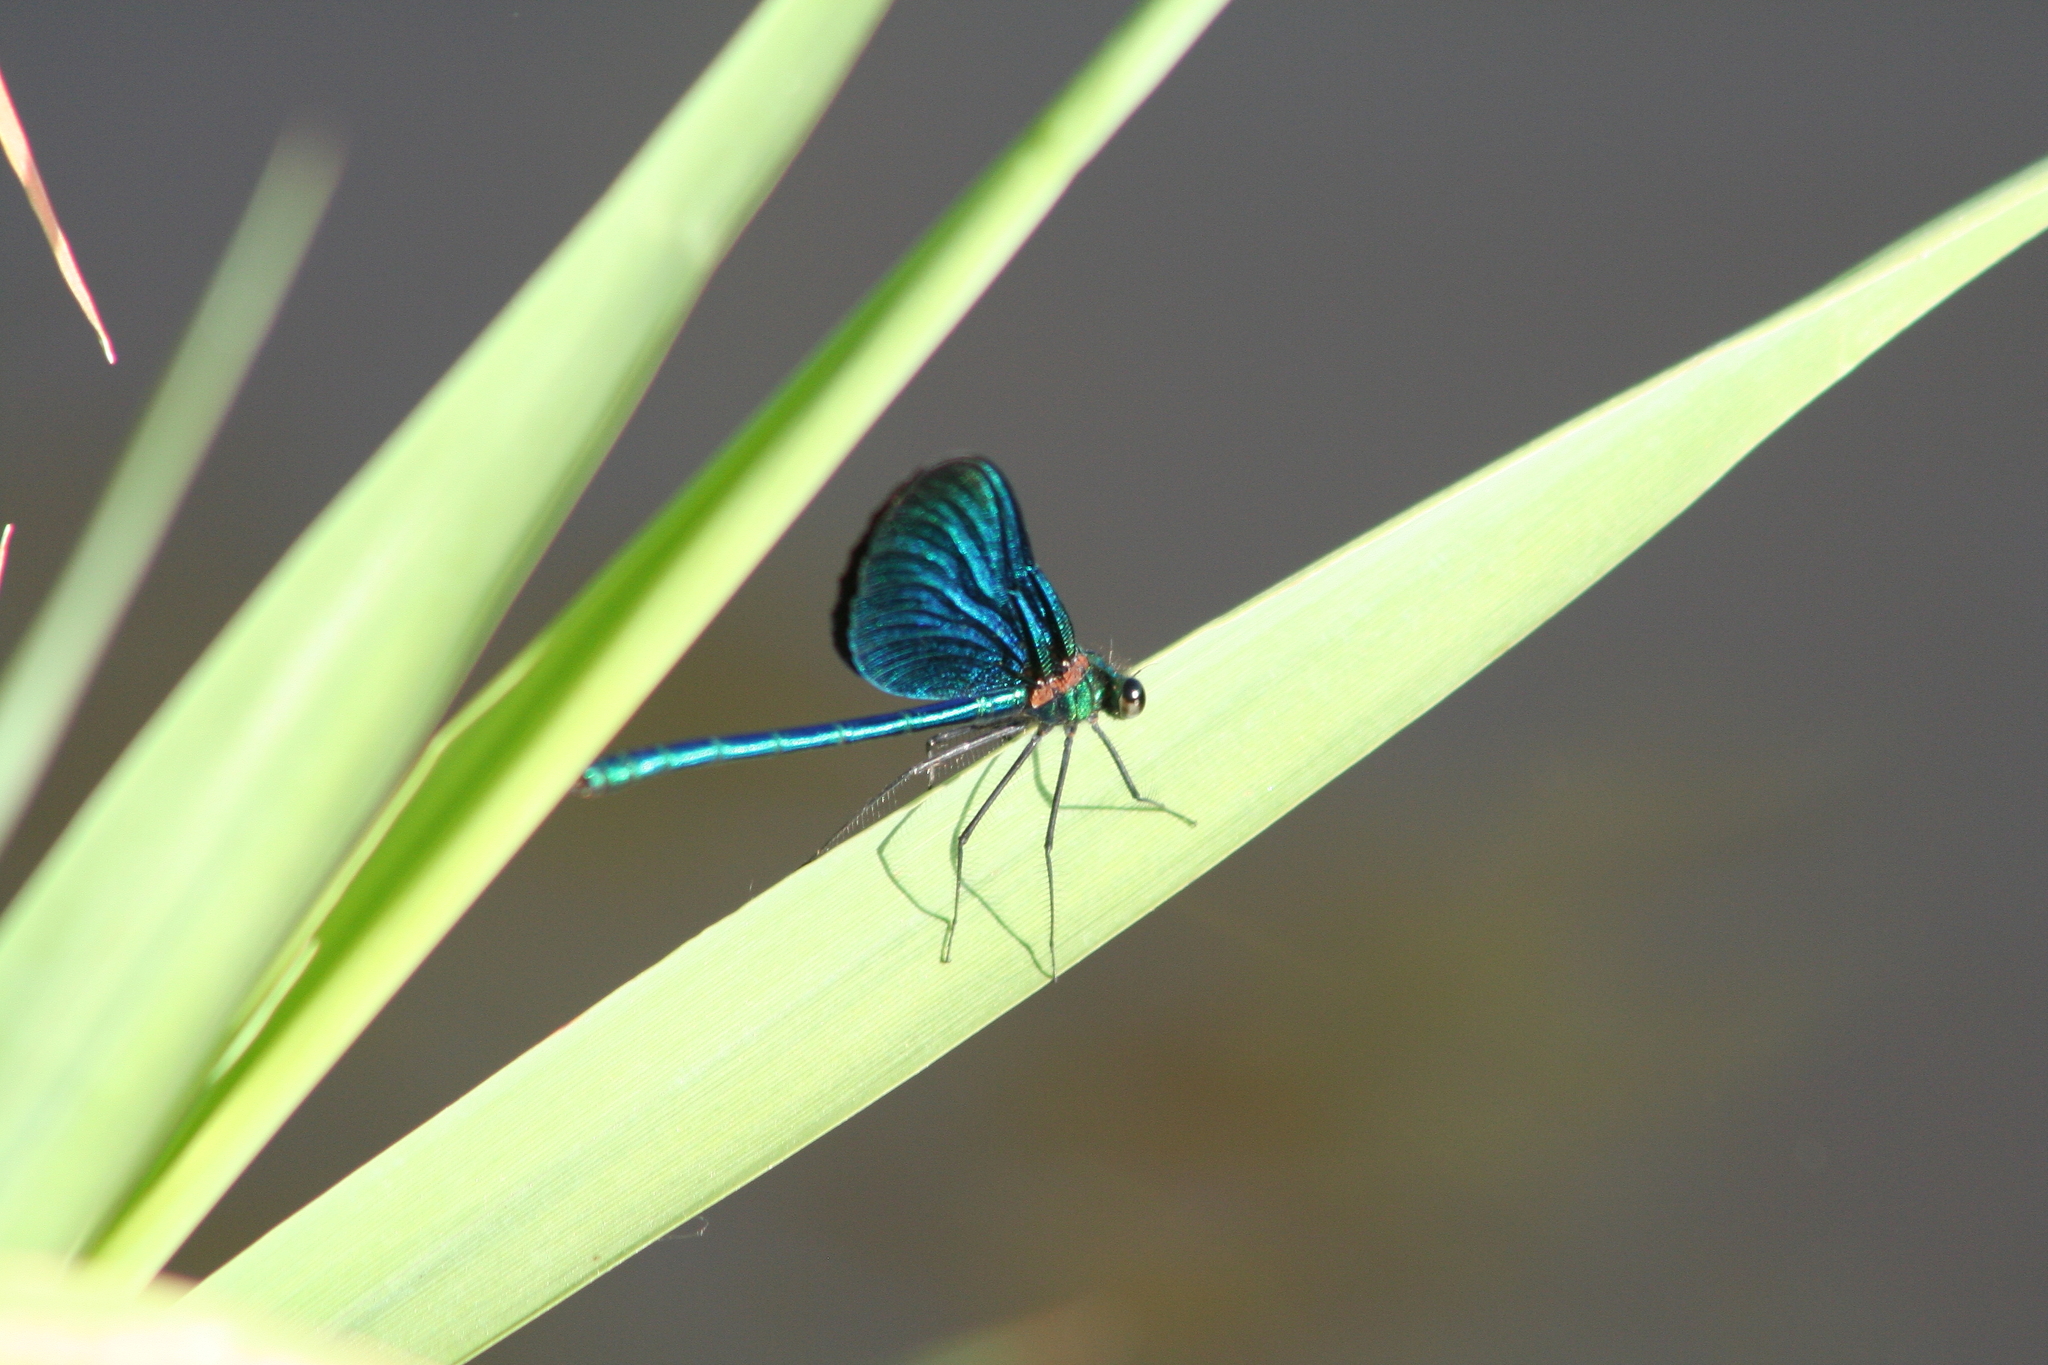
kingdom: Animalia
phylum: Arthropoda
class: Insecta
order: Odonata
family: Calopterygidae
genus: Calopteryx
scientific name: Calopteryx virgo
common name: Beautiful demoiselle
